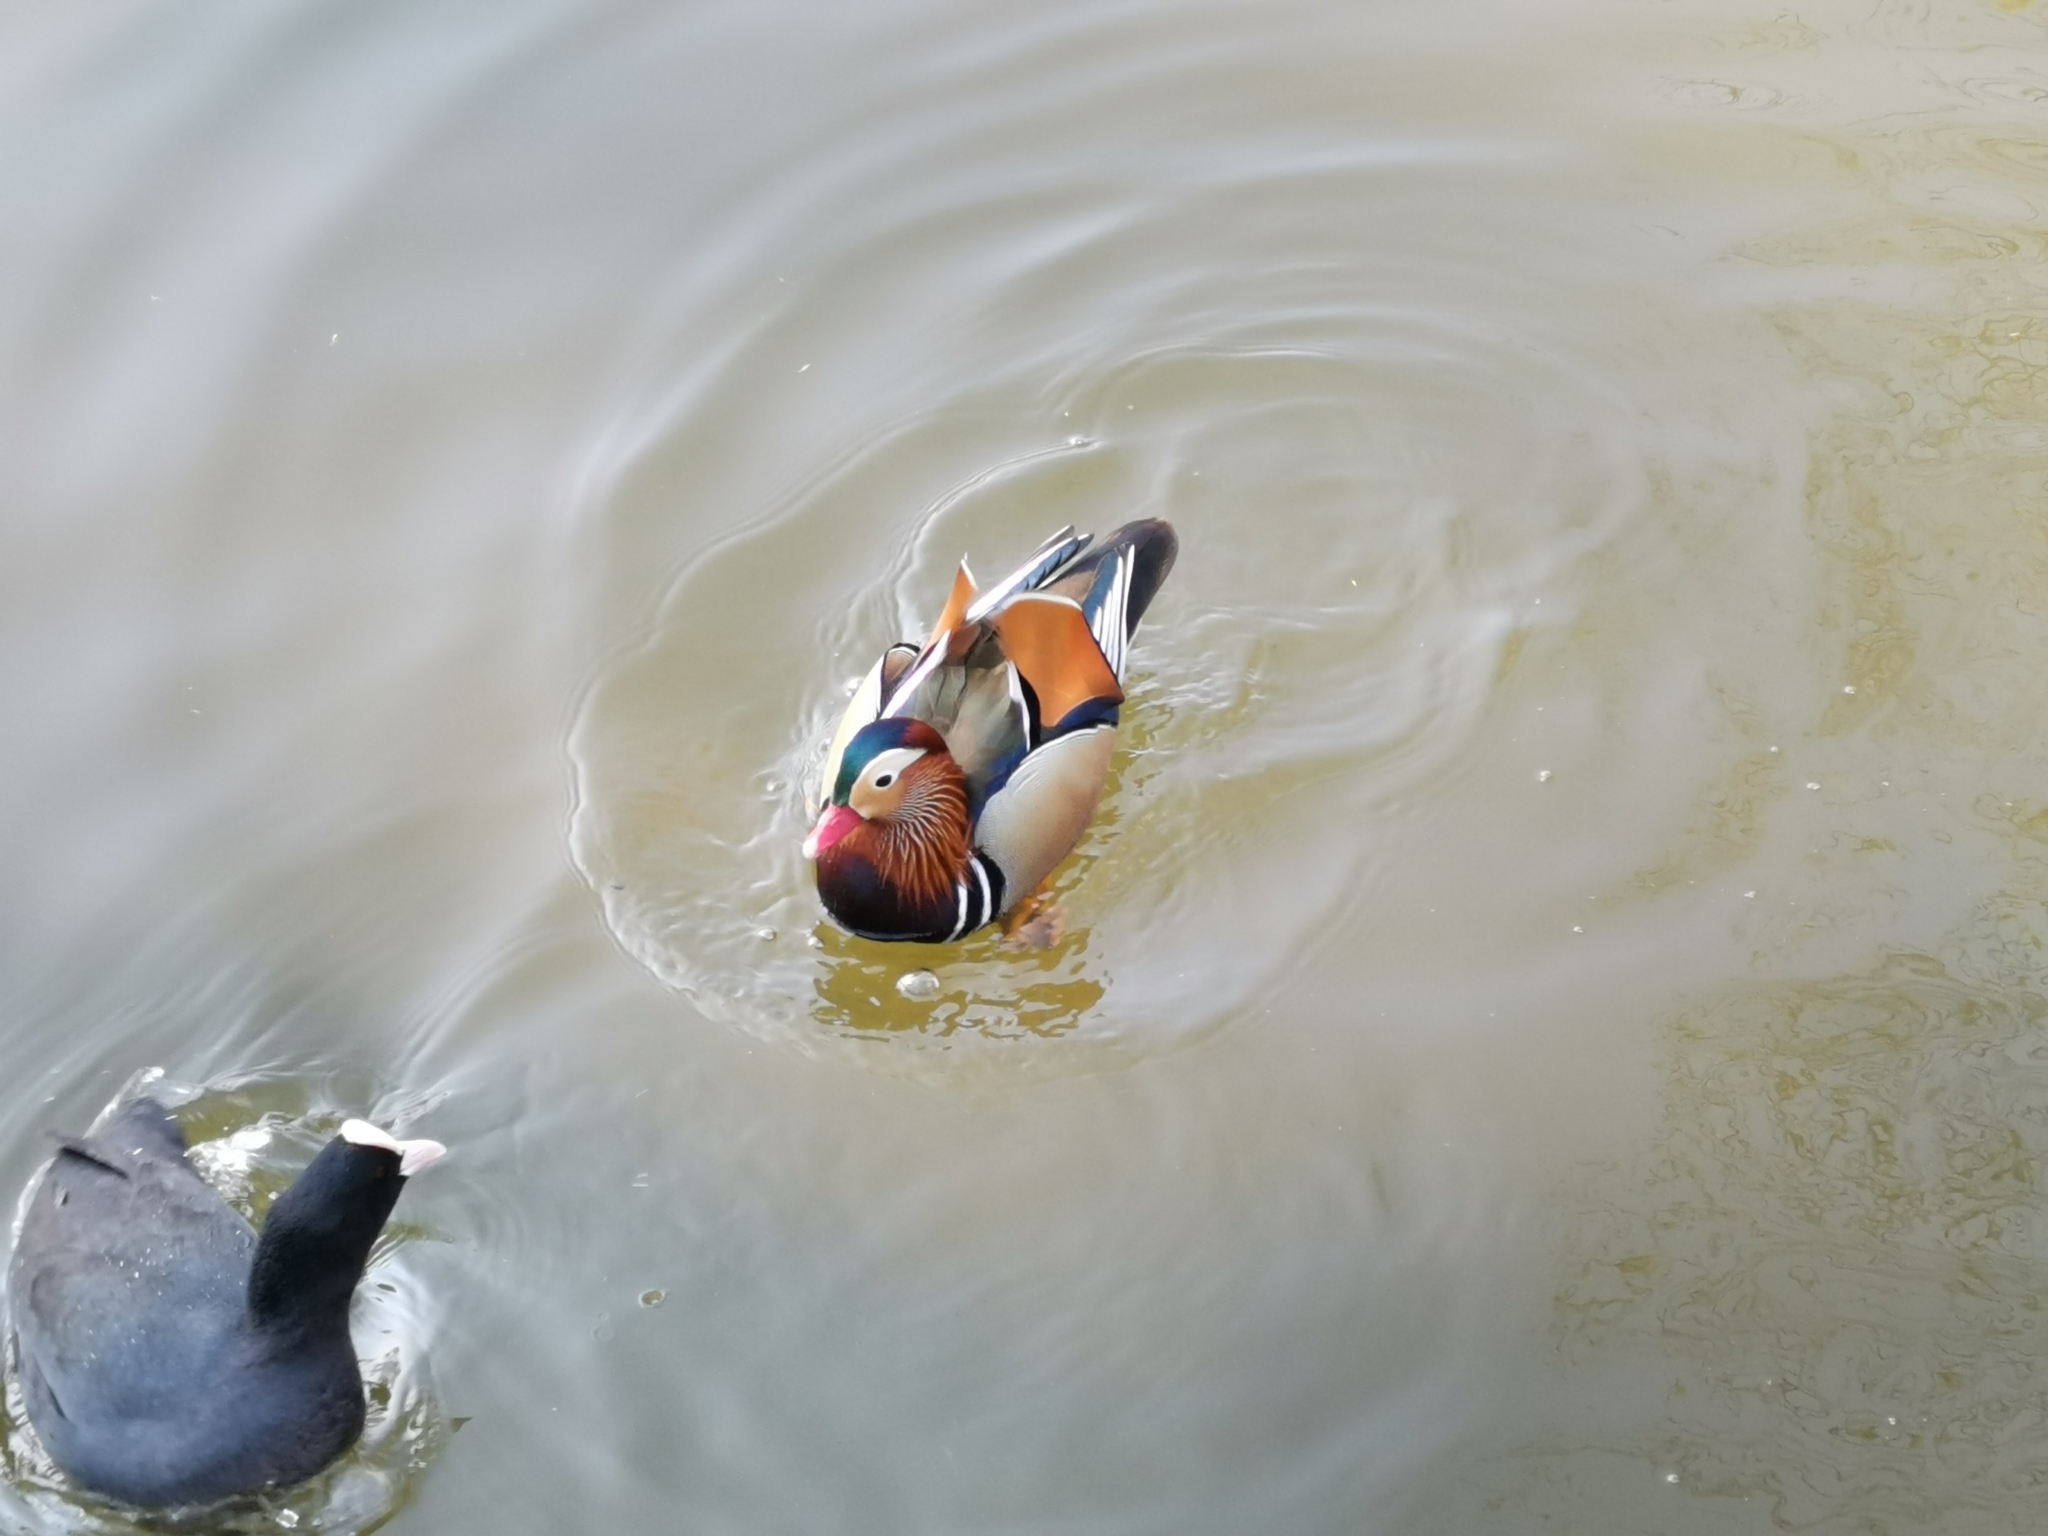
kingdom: Animalia
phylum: Chordata
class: Aves
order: Anseriformes
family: Anatidae
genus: Aix
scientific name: Aix galericulata
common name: Mandarin duck
